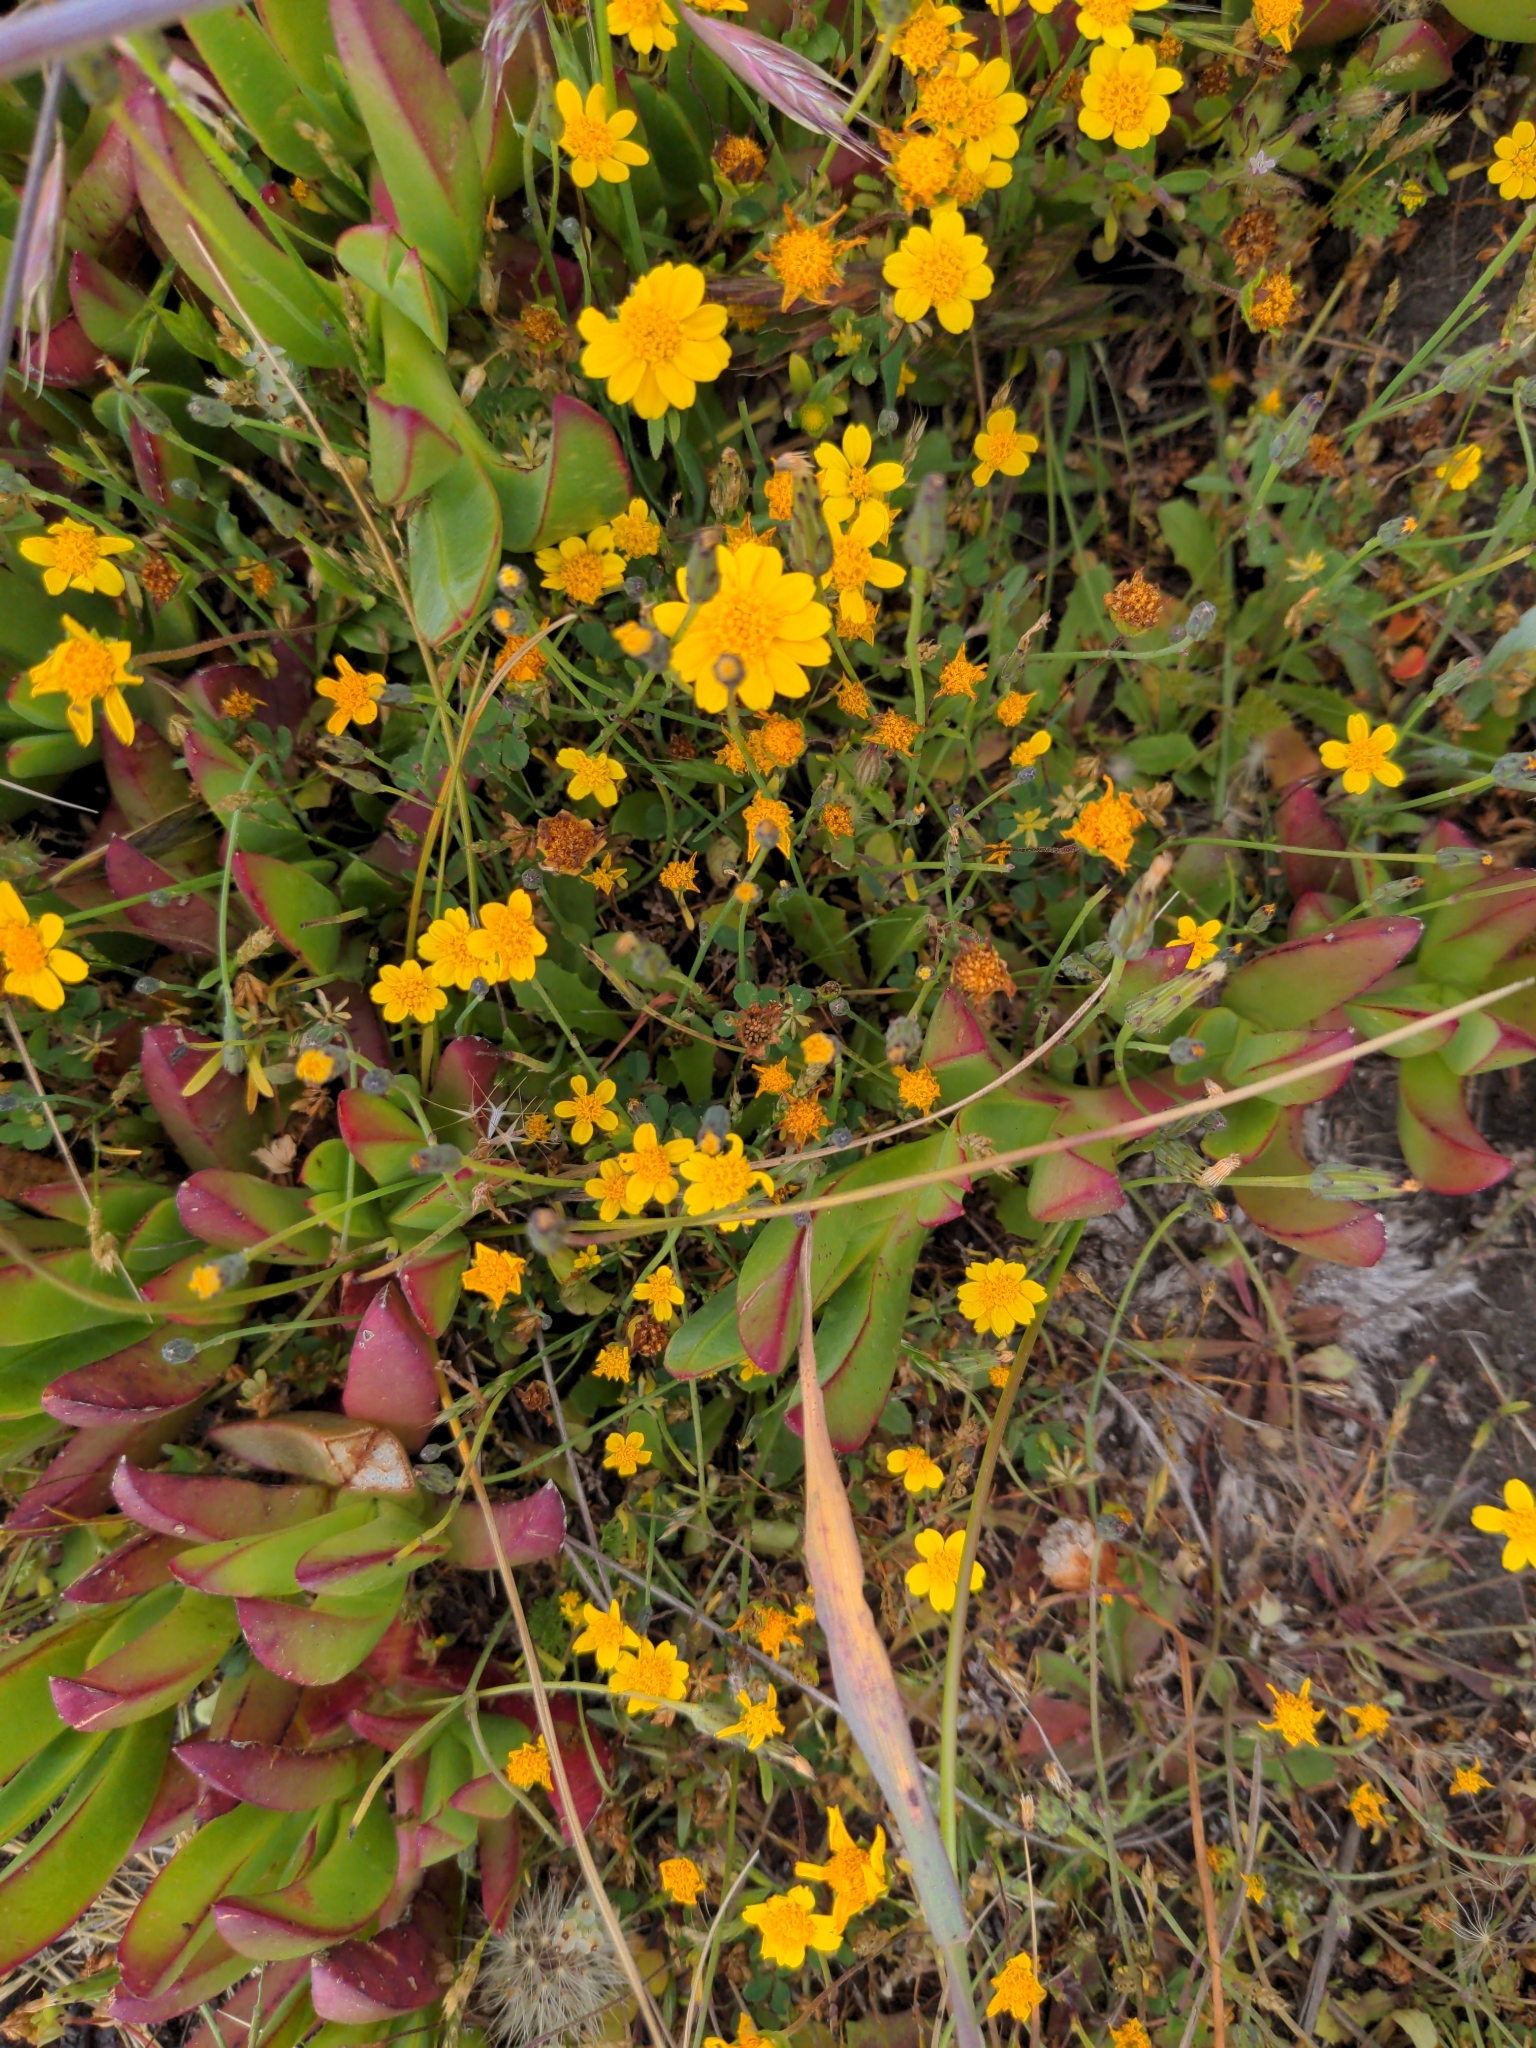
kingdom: Plantae
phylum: Tracheophyta
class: Magnoliopsida
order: Asterales
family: Asteraceae
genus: Lasthenia
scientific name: Lasthenia californica
